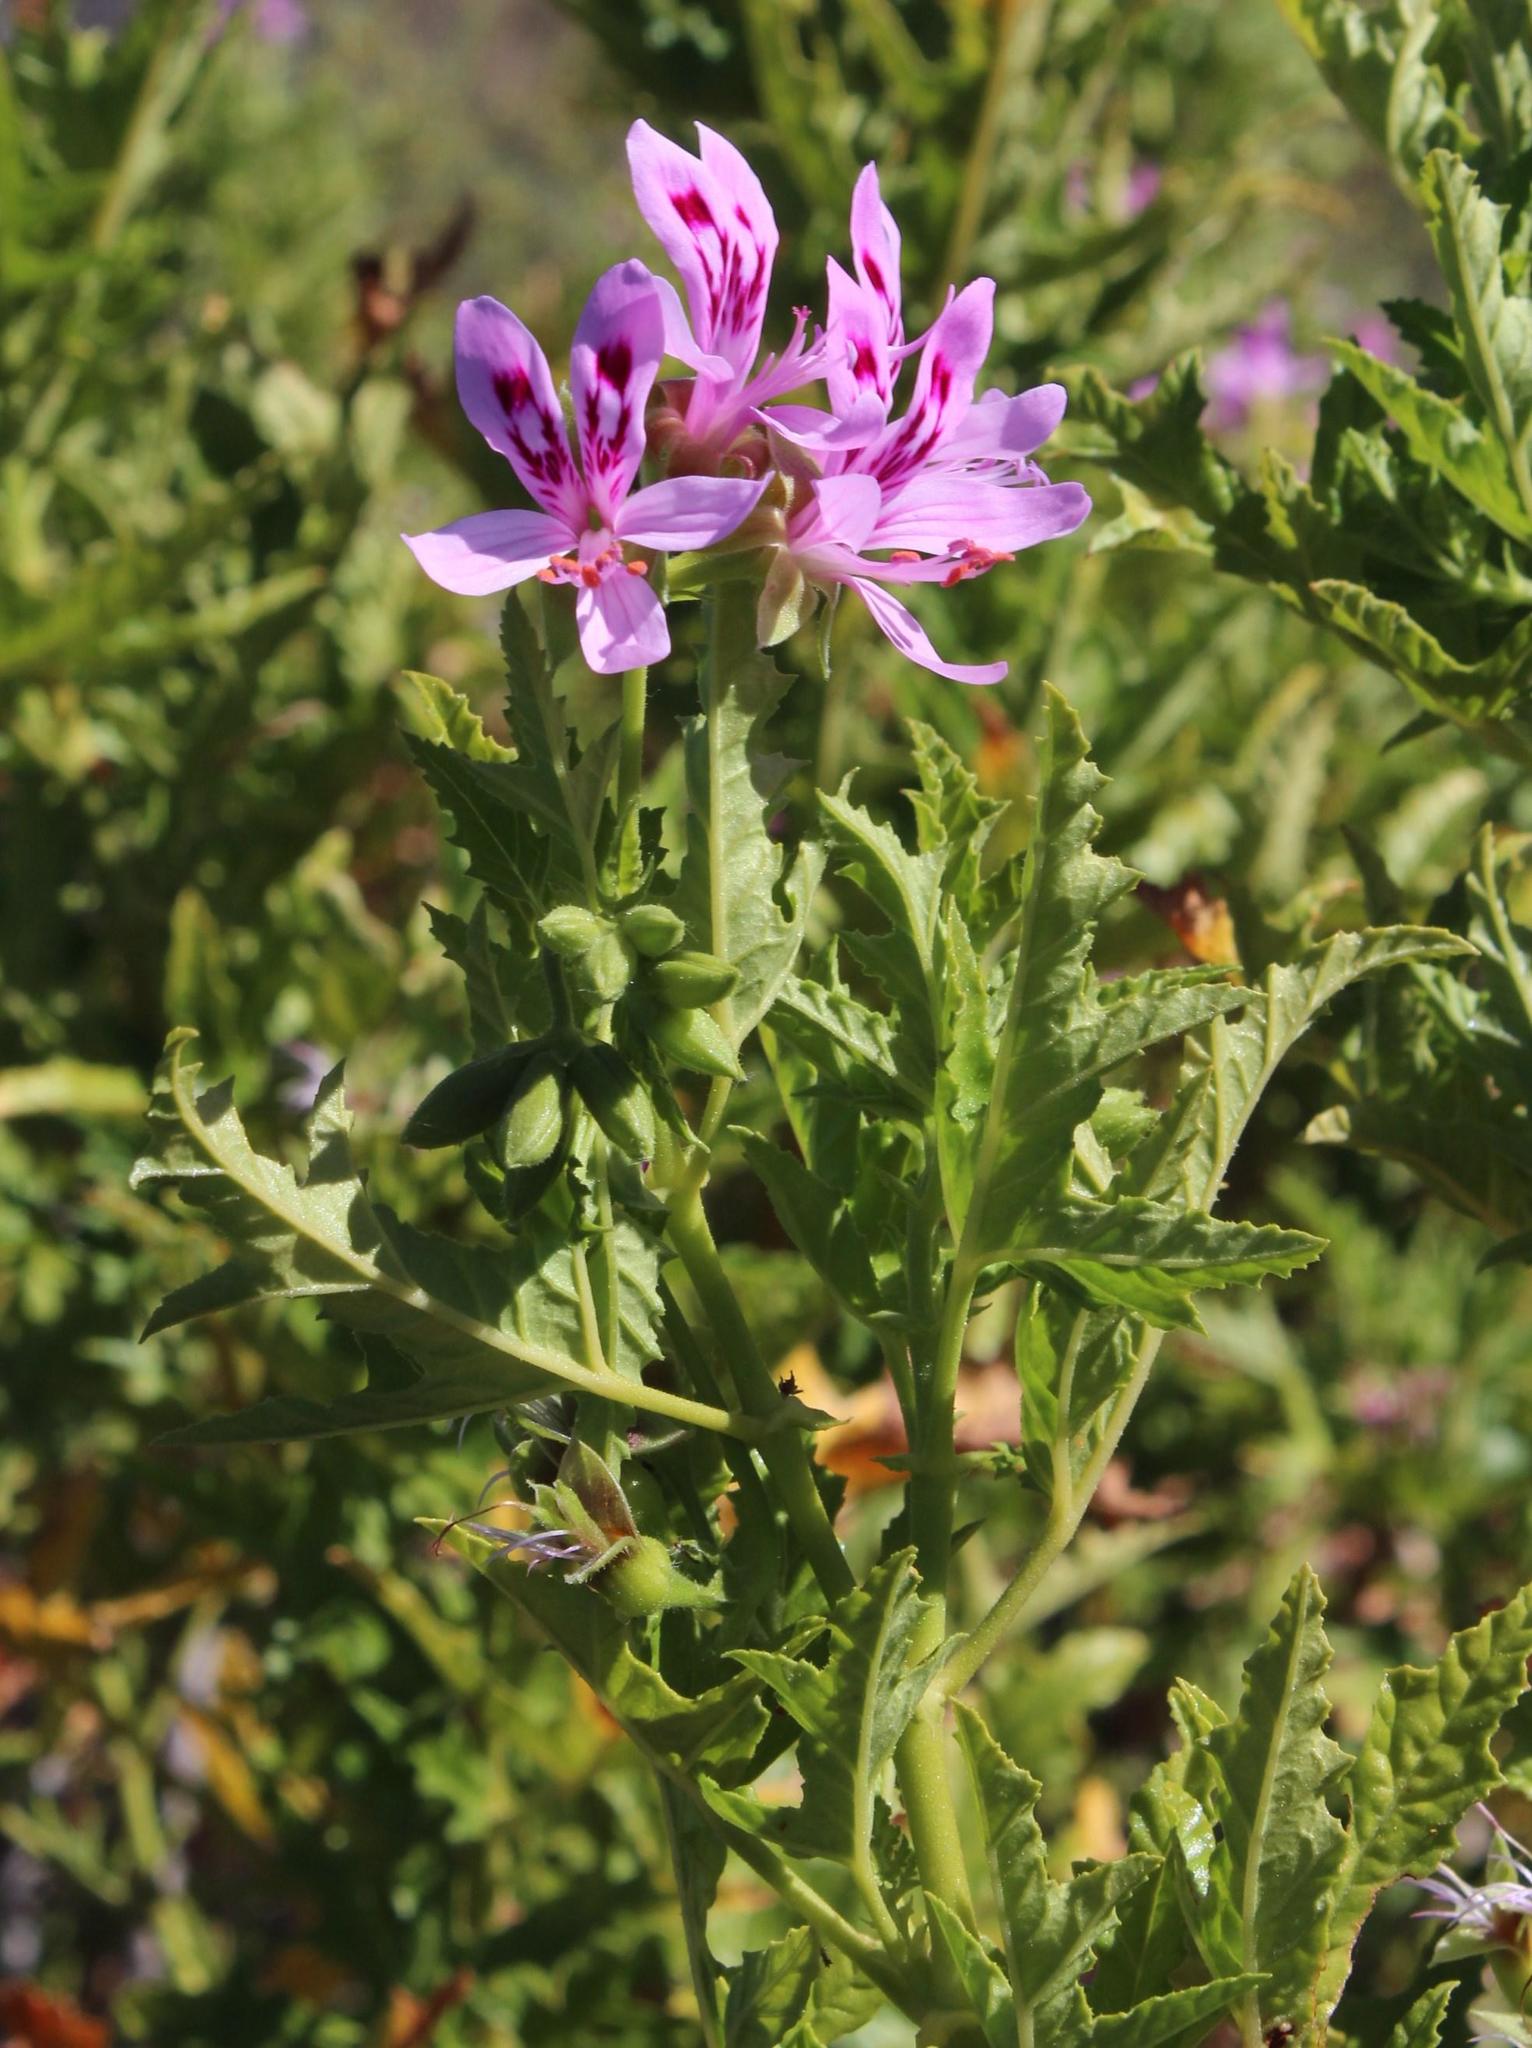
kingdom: Plantae
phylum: Tracheophyta
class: Magnoliopsida
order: Geraniales
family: Geraniaceae
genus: Pelargonium
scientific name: Pelargonium glutinosum
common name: Pheasant-foot geranium
